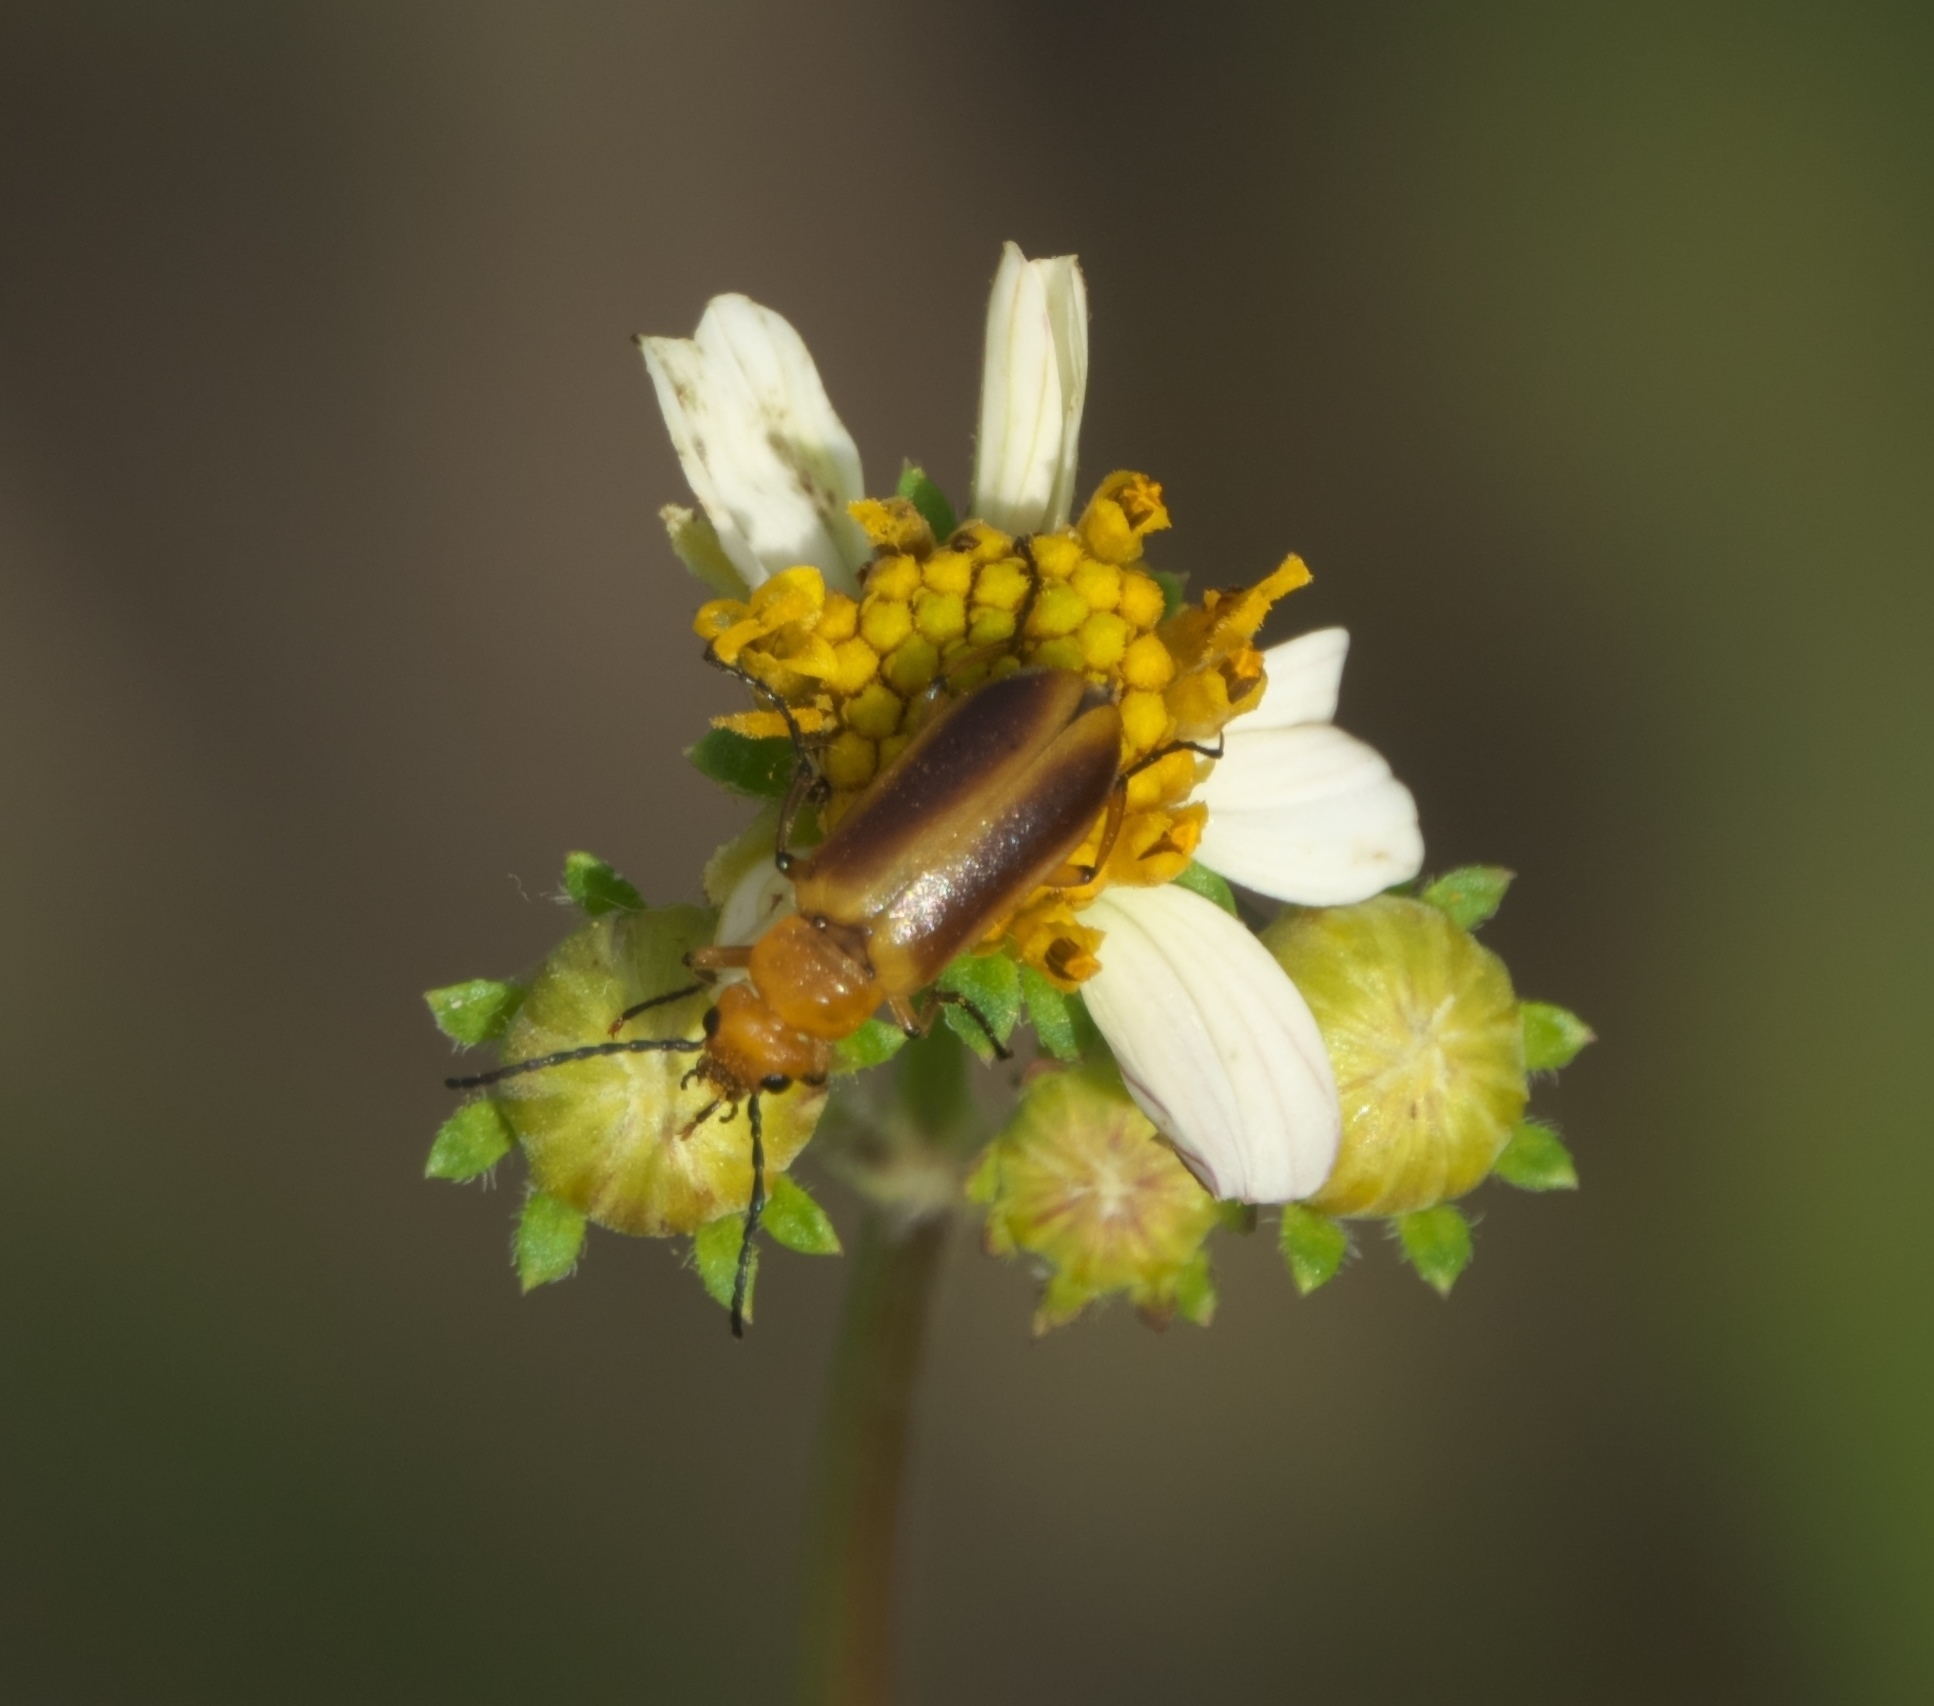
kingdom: Animalia
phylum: Arthropoda
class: Insecta
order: Coleoptera
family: Meloidae
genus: Nemognatha
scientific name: Nemognatha punctulata
